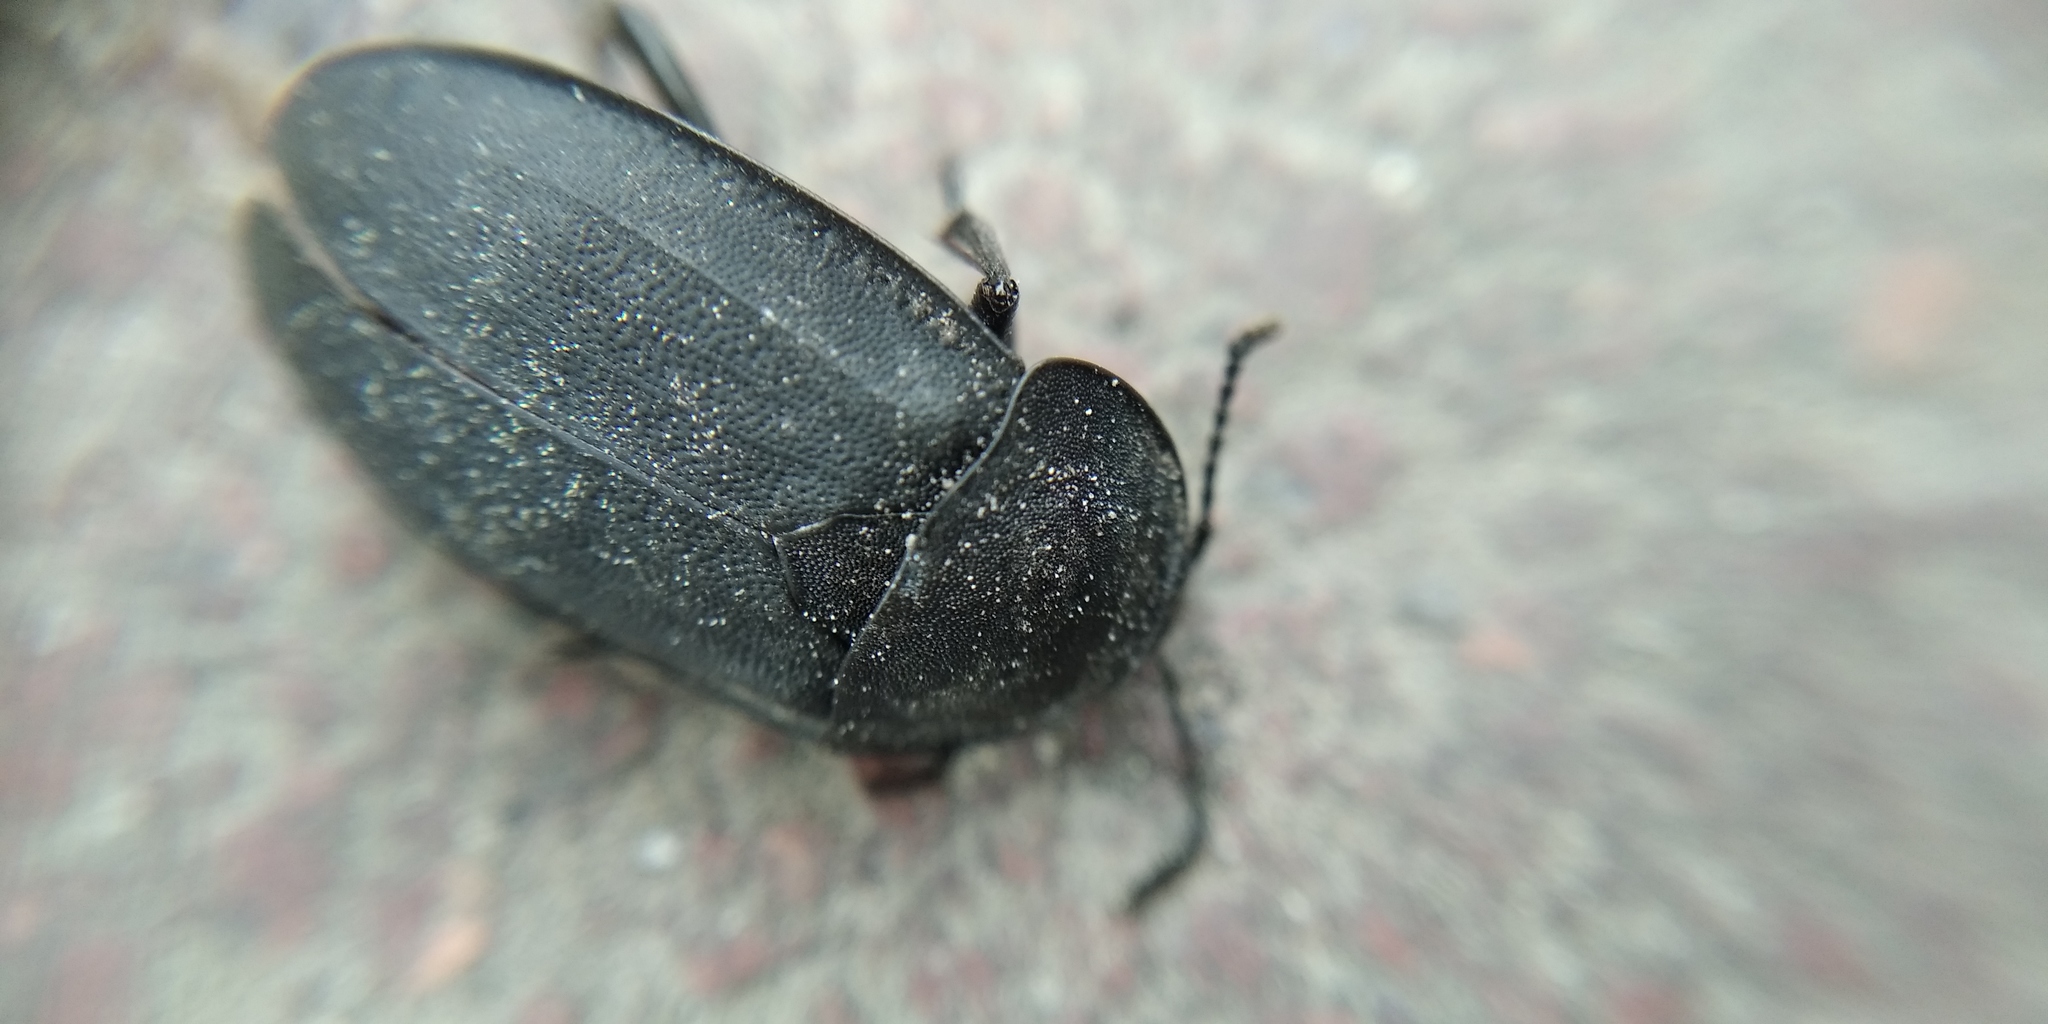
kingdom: Animalia
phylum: Arthropoda
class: Insecta
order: Coleoptera
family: Staphylinidae
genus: Silpha
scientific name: Silpha obscura
